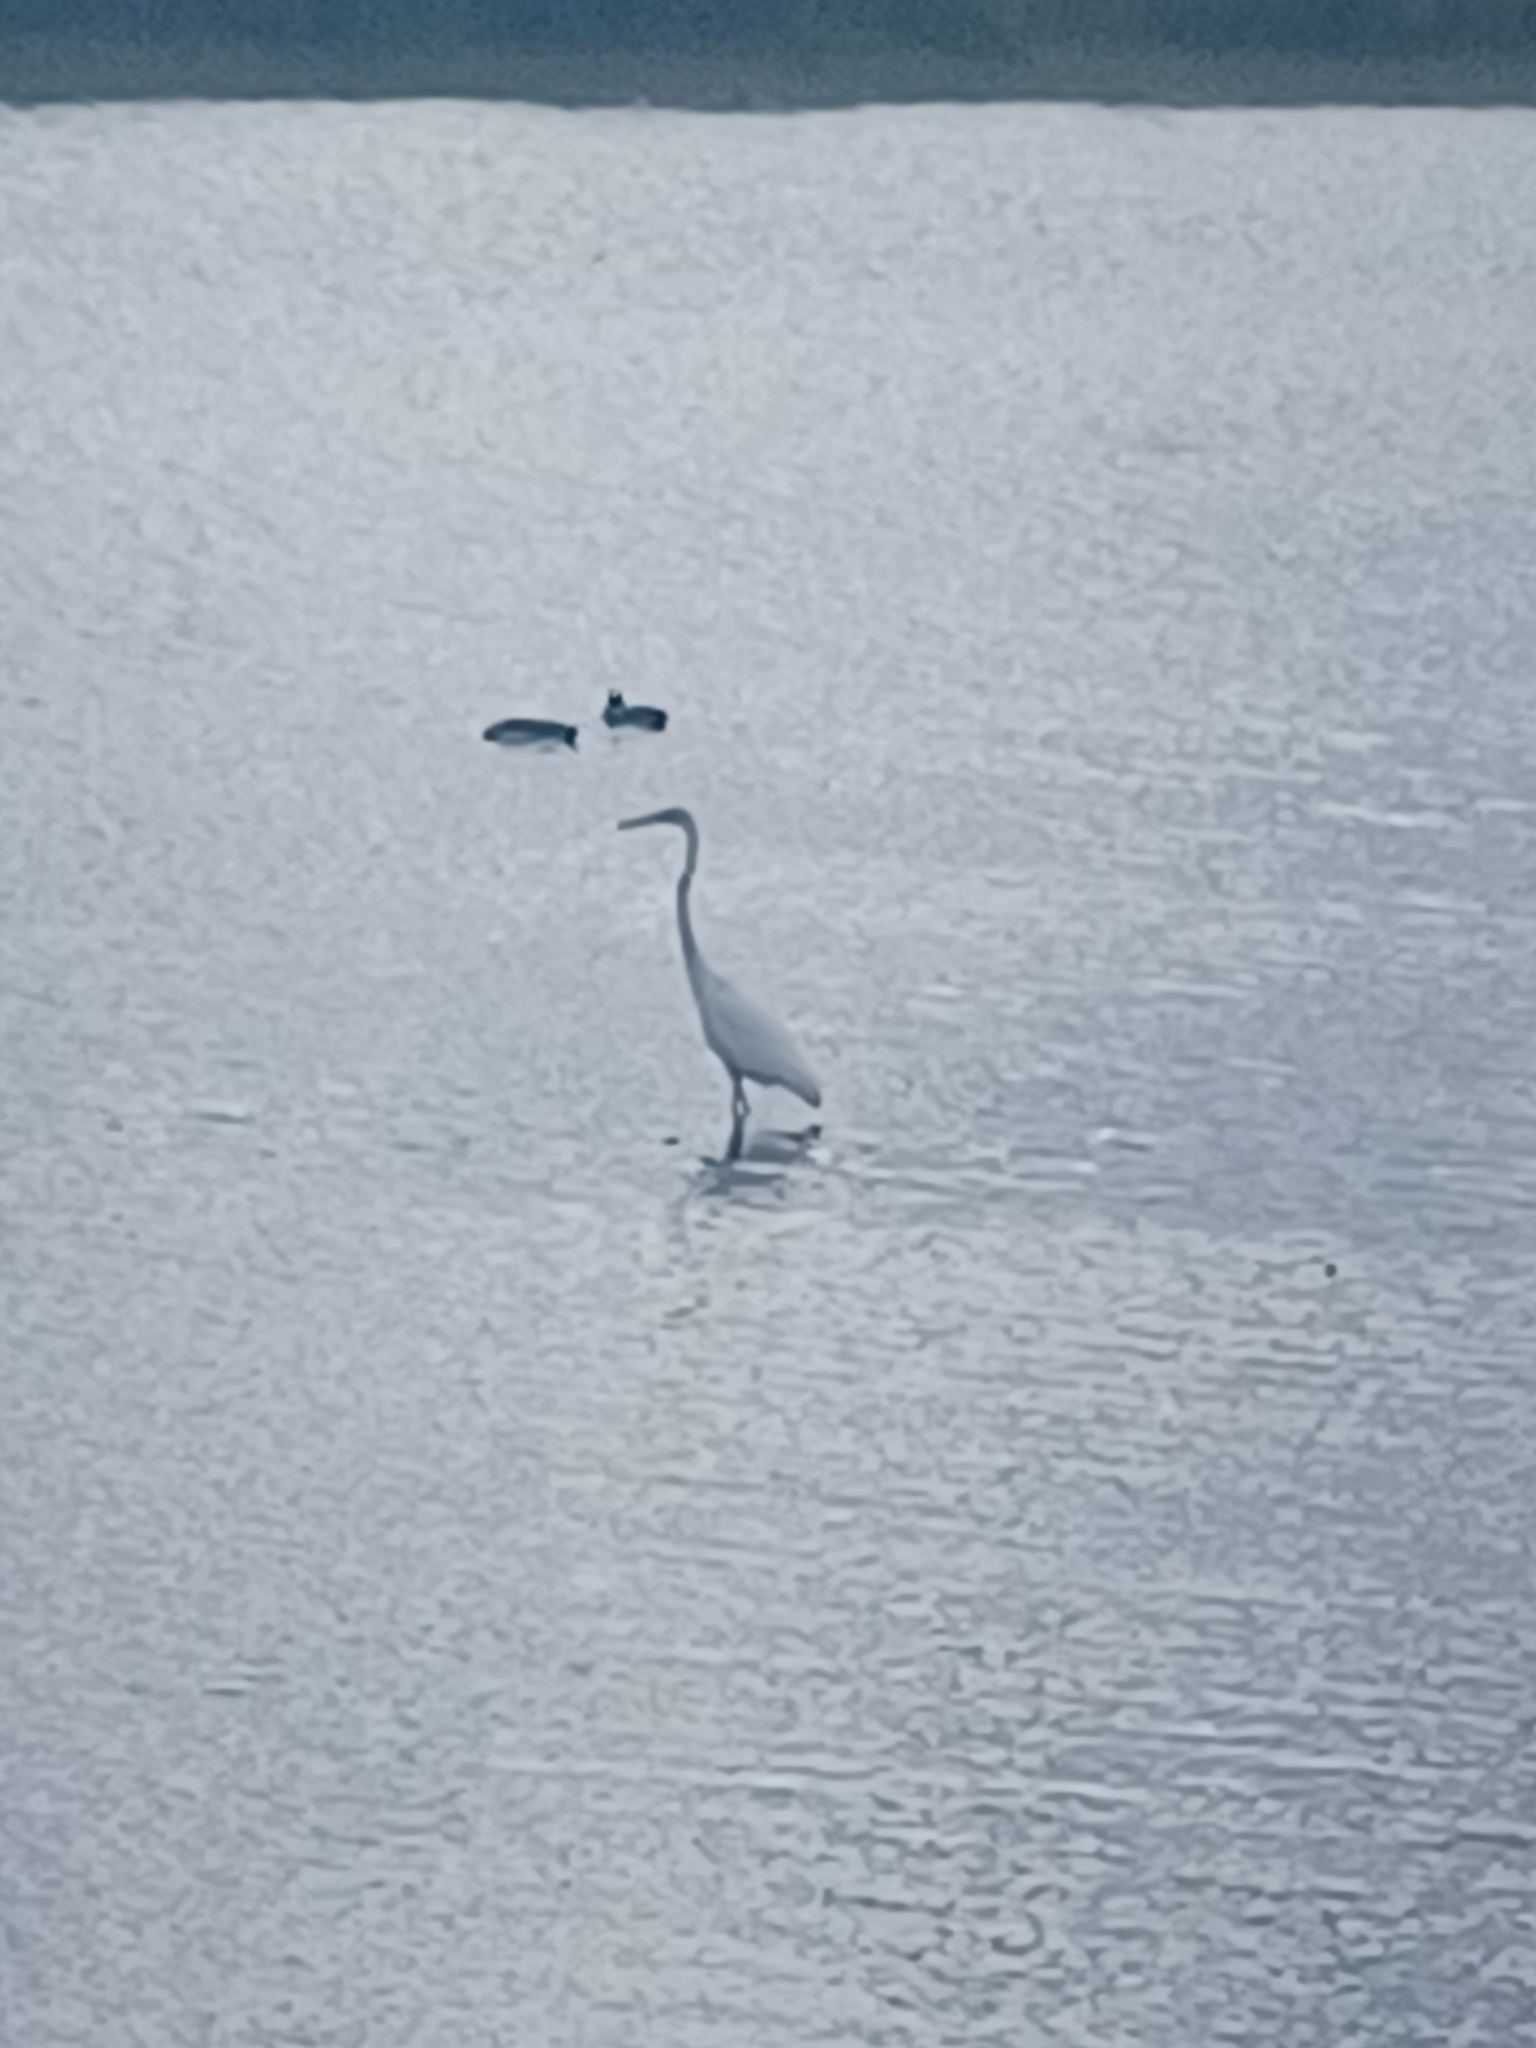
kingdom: Animalia
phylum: Chordata
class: Aves
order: Pelecaniformes
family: Ardeidae
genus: Ardea
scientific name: Ardea alba
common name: Great egret
